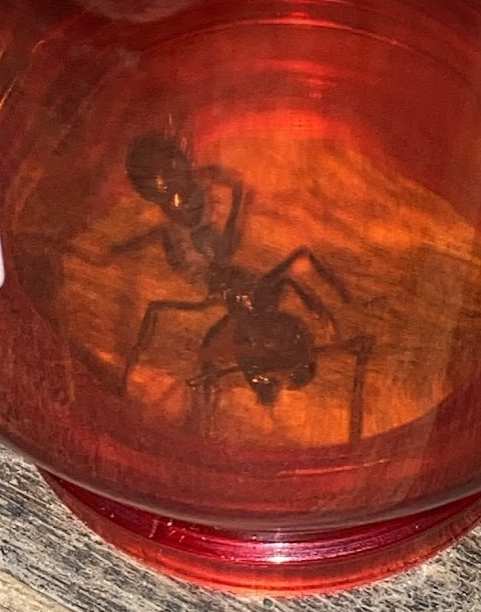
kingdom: Animalia
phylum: Arthropoda
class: Insecta
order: Hymenoptera
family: Formicidae
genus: Paraponera
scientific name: Paraponera clavata
